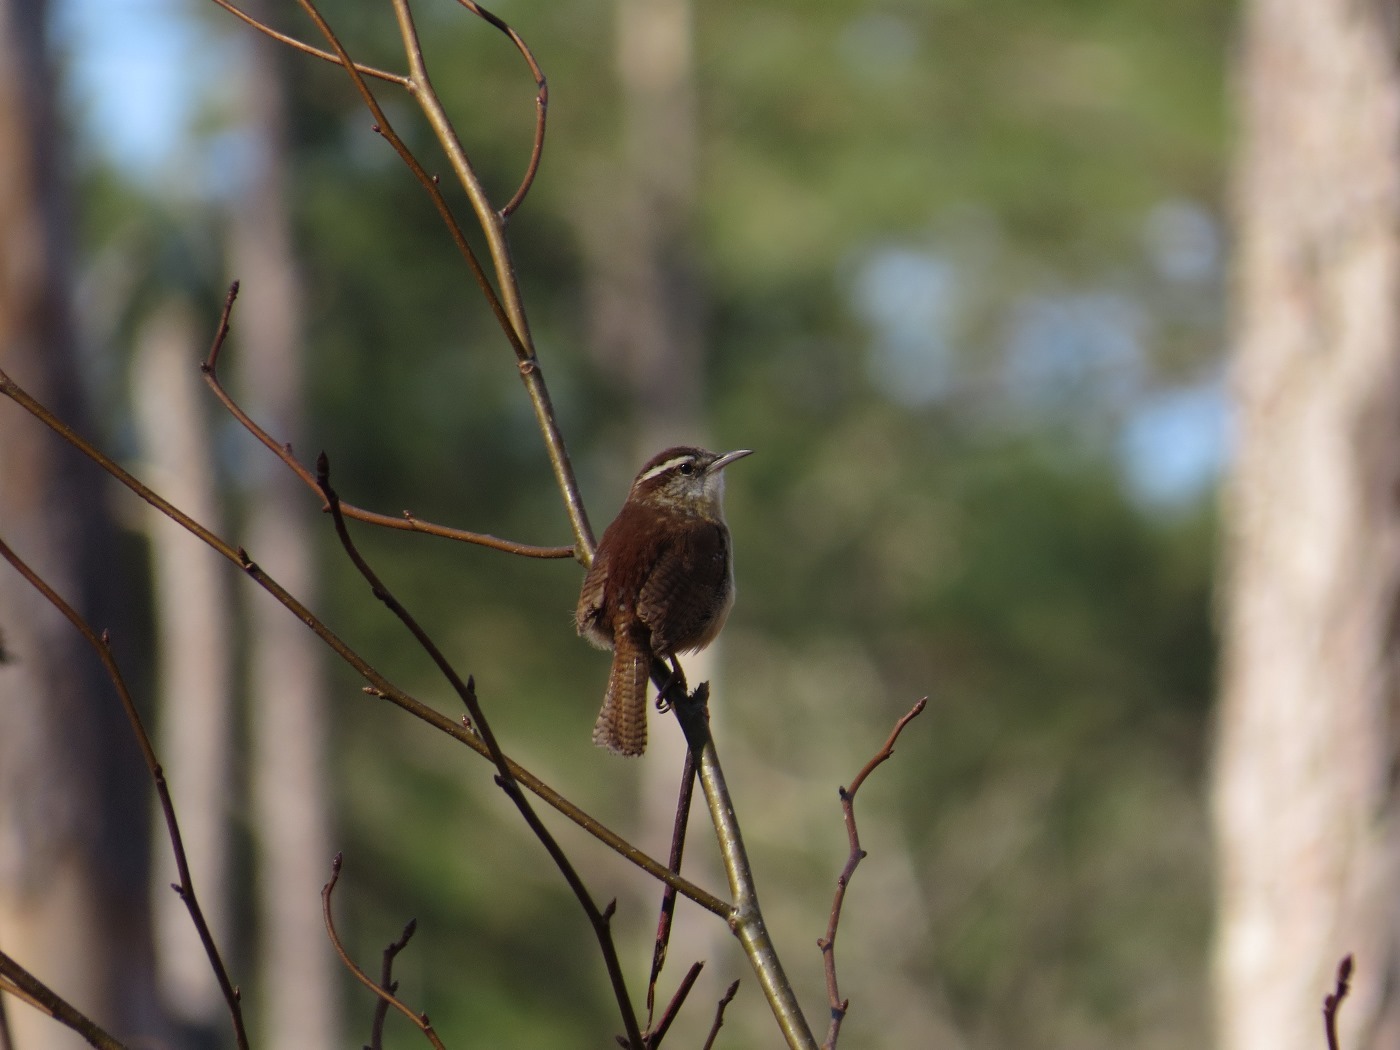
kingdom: Animalia
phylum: Chordata
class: Aves
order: Passeriformes
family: Troglodytidae
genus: Thryothorus
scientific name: Thryothorus ludovicianus
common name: Carolina wren
